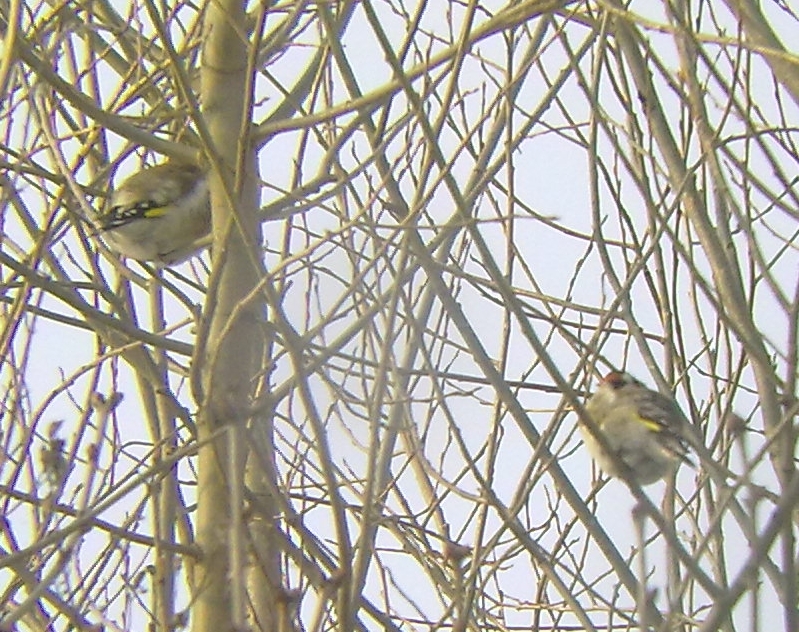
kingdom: Animalia
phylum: Chordata
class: Aves
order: Passeriformes
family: Fringillidae
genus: Carduelis
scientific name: Carduelis carduelis
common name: European goldfinch
